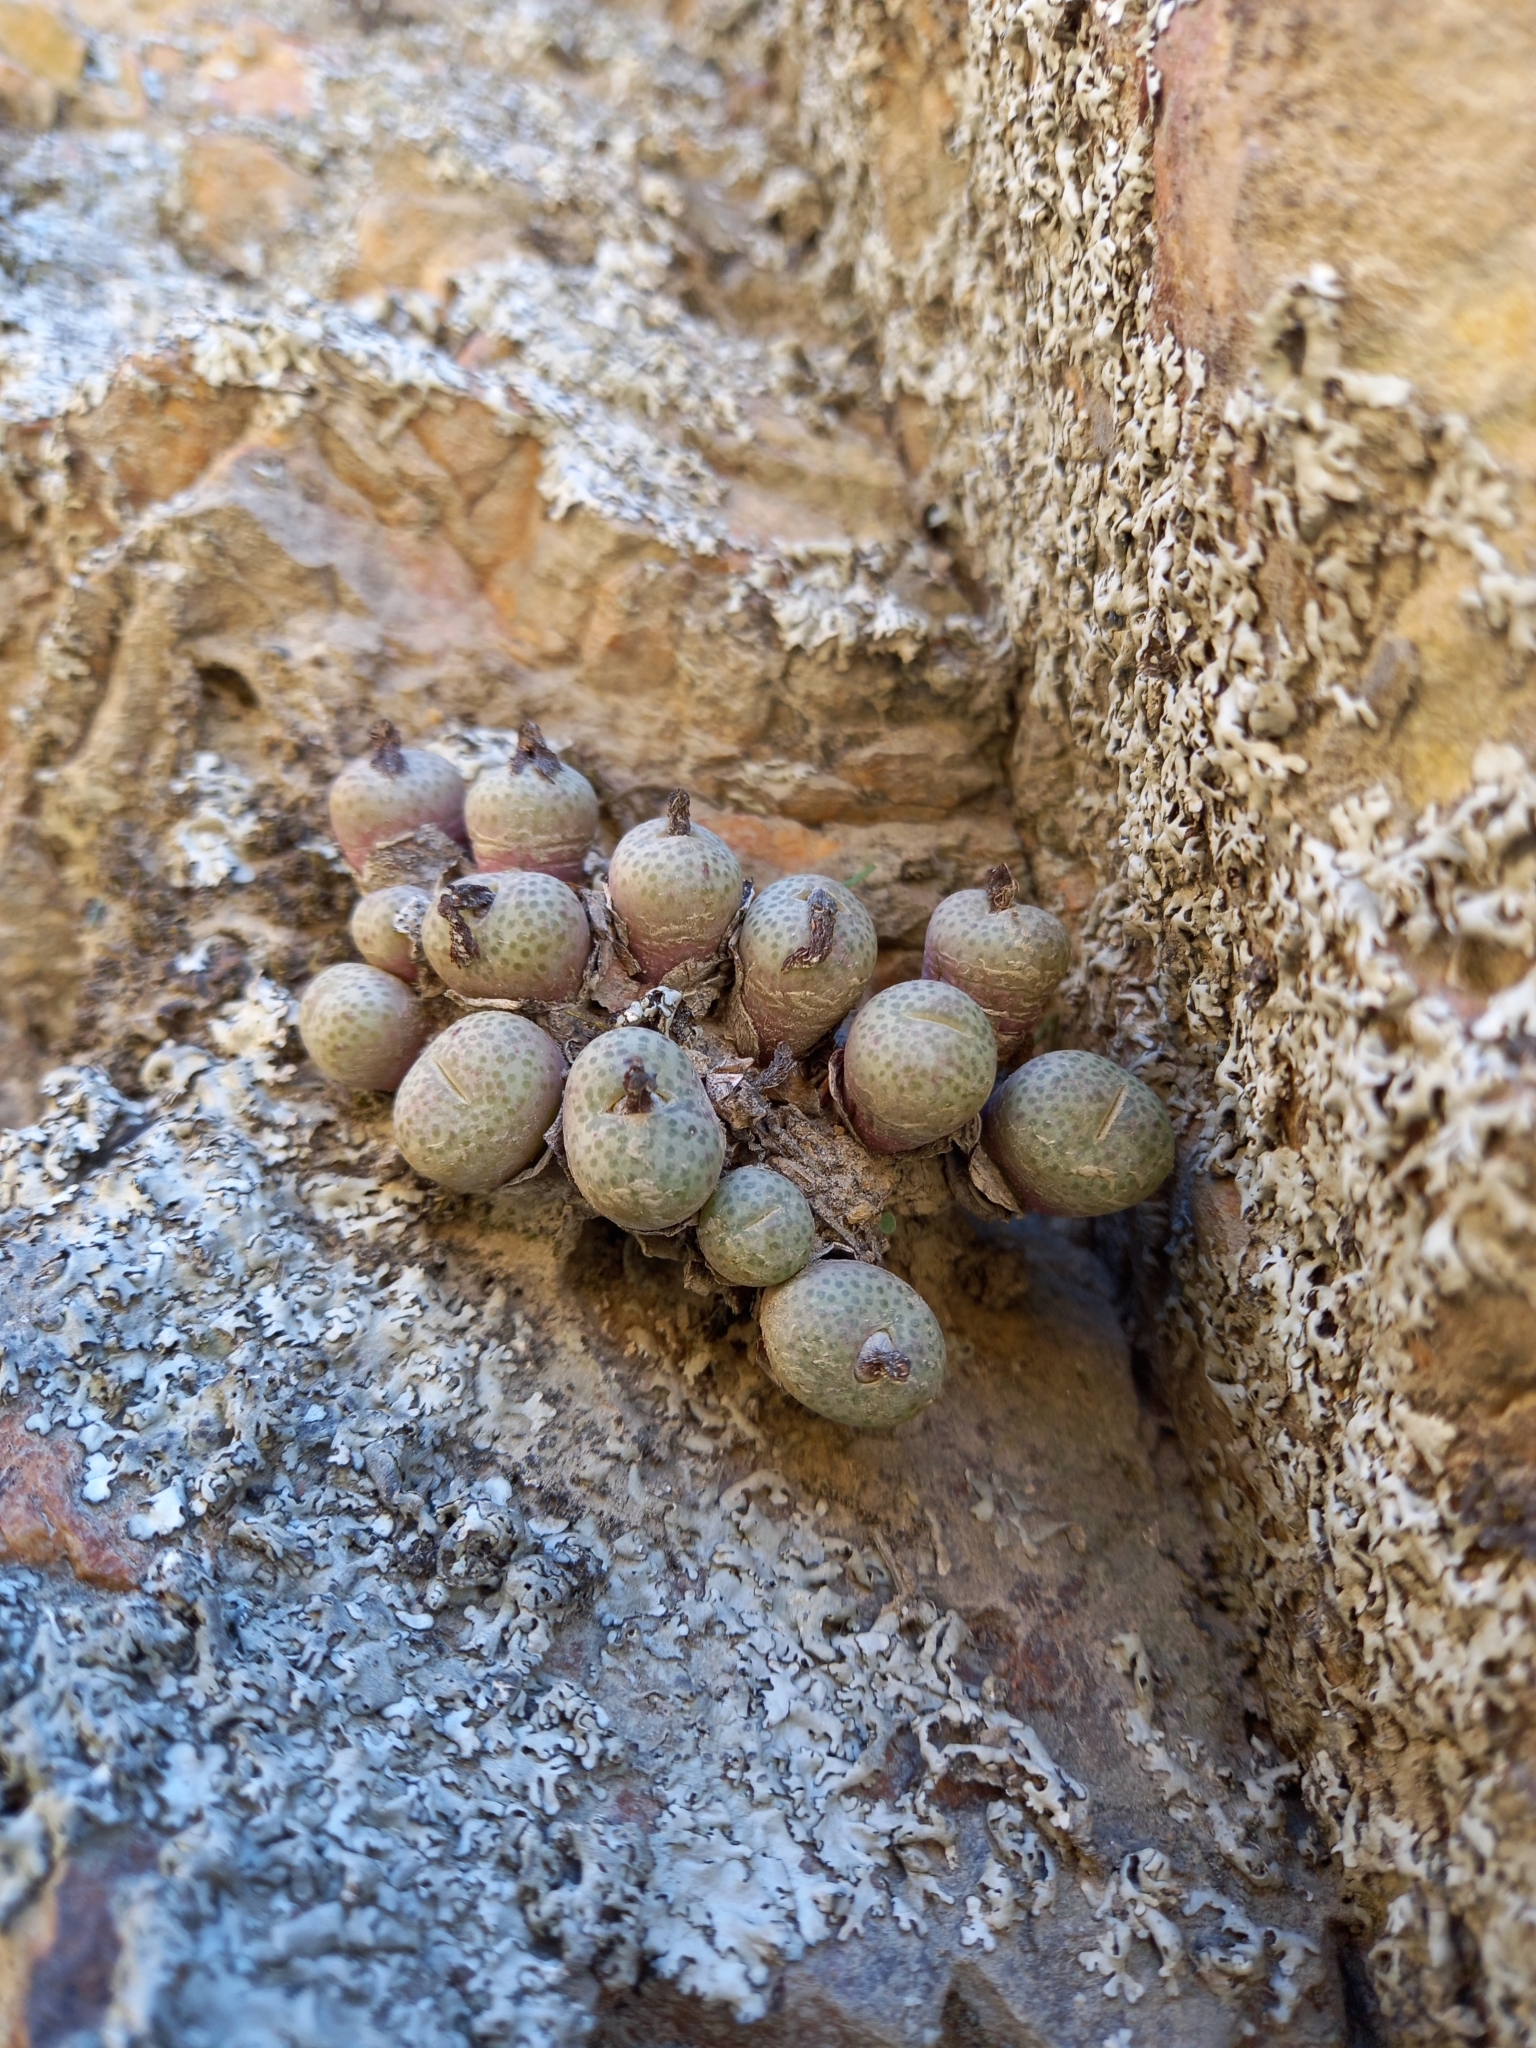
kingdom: Plantae
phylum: Tracheophyta
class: Magnoliopsida
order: Caryophyllales
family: Aizoaceae
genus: Conophytum
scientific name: Conophytum truncatum
